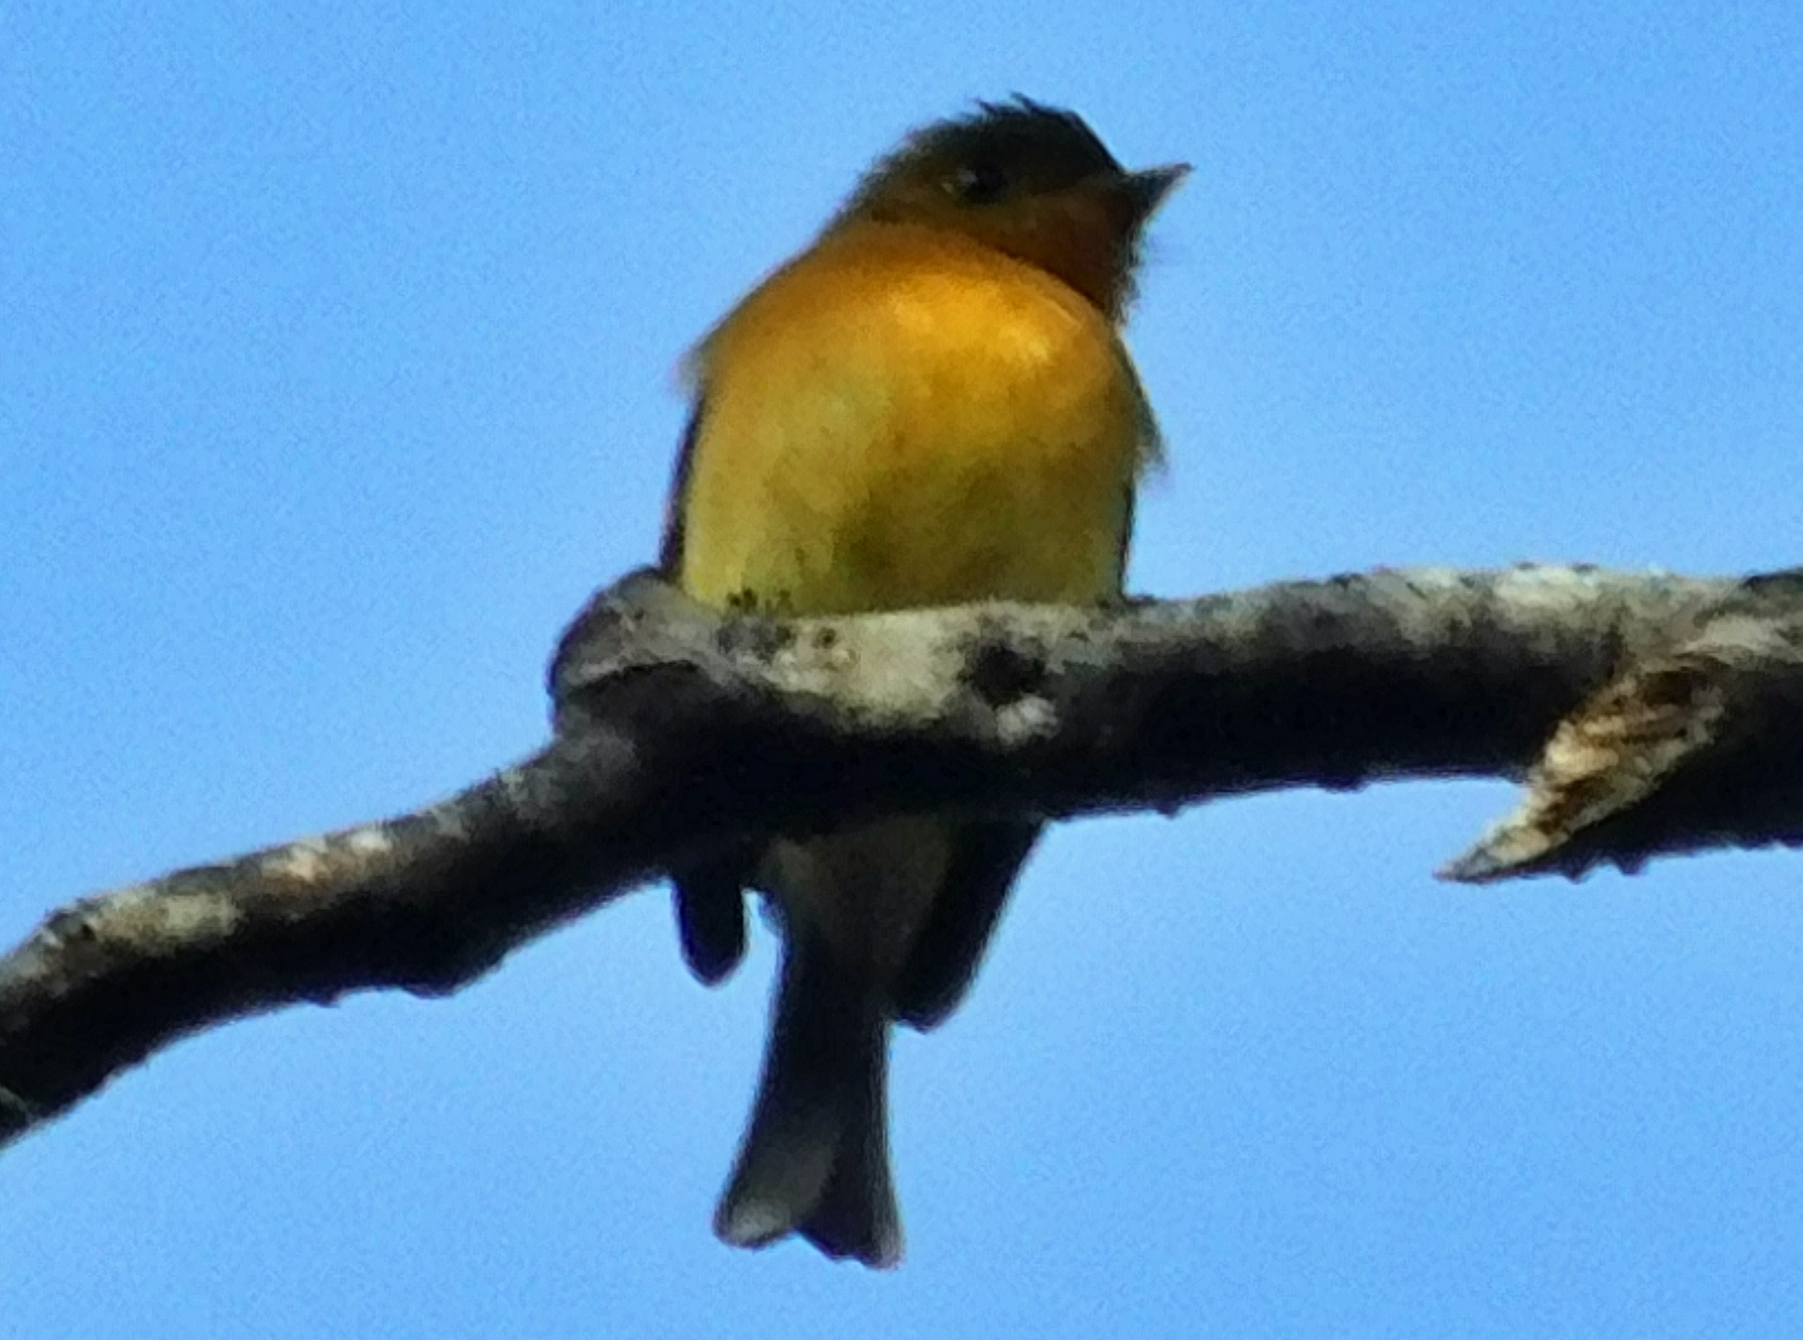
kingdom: Animalia
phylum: Chordata
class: Aves
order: Passeriformes
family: Tyrannidae
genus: Mitrephanes
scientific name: Mitrephanes phaeocercus
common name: Northern tufted flycatcher
